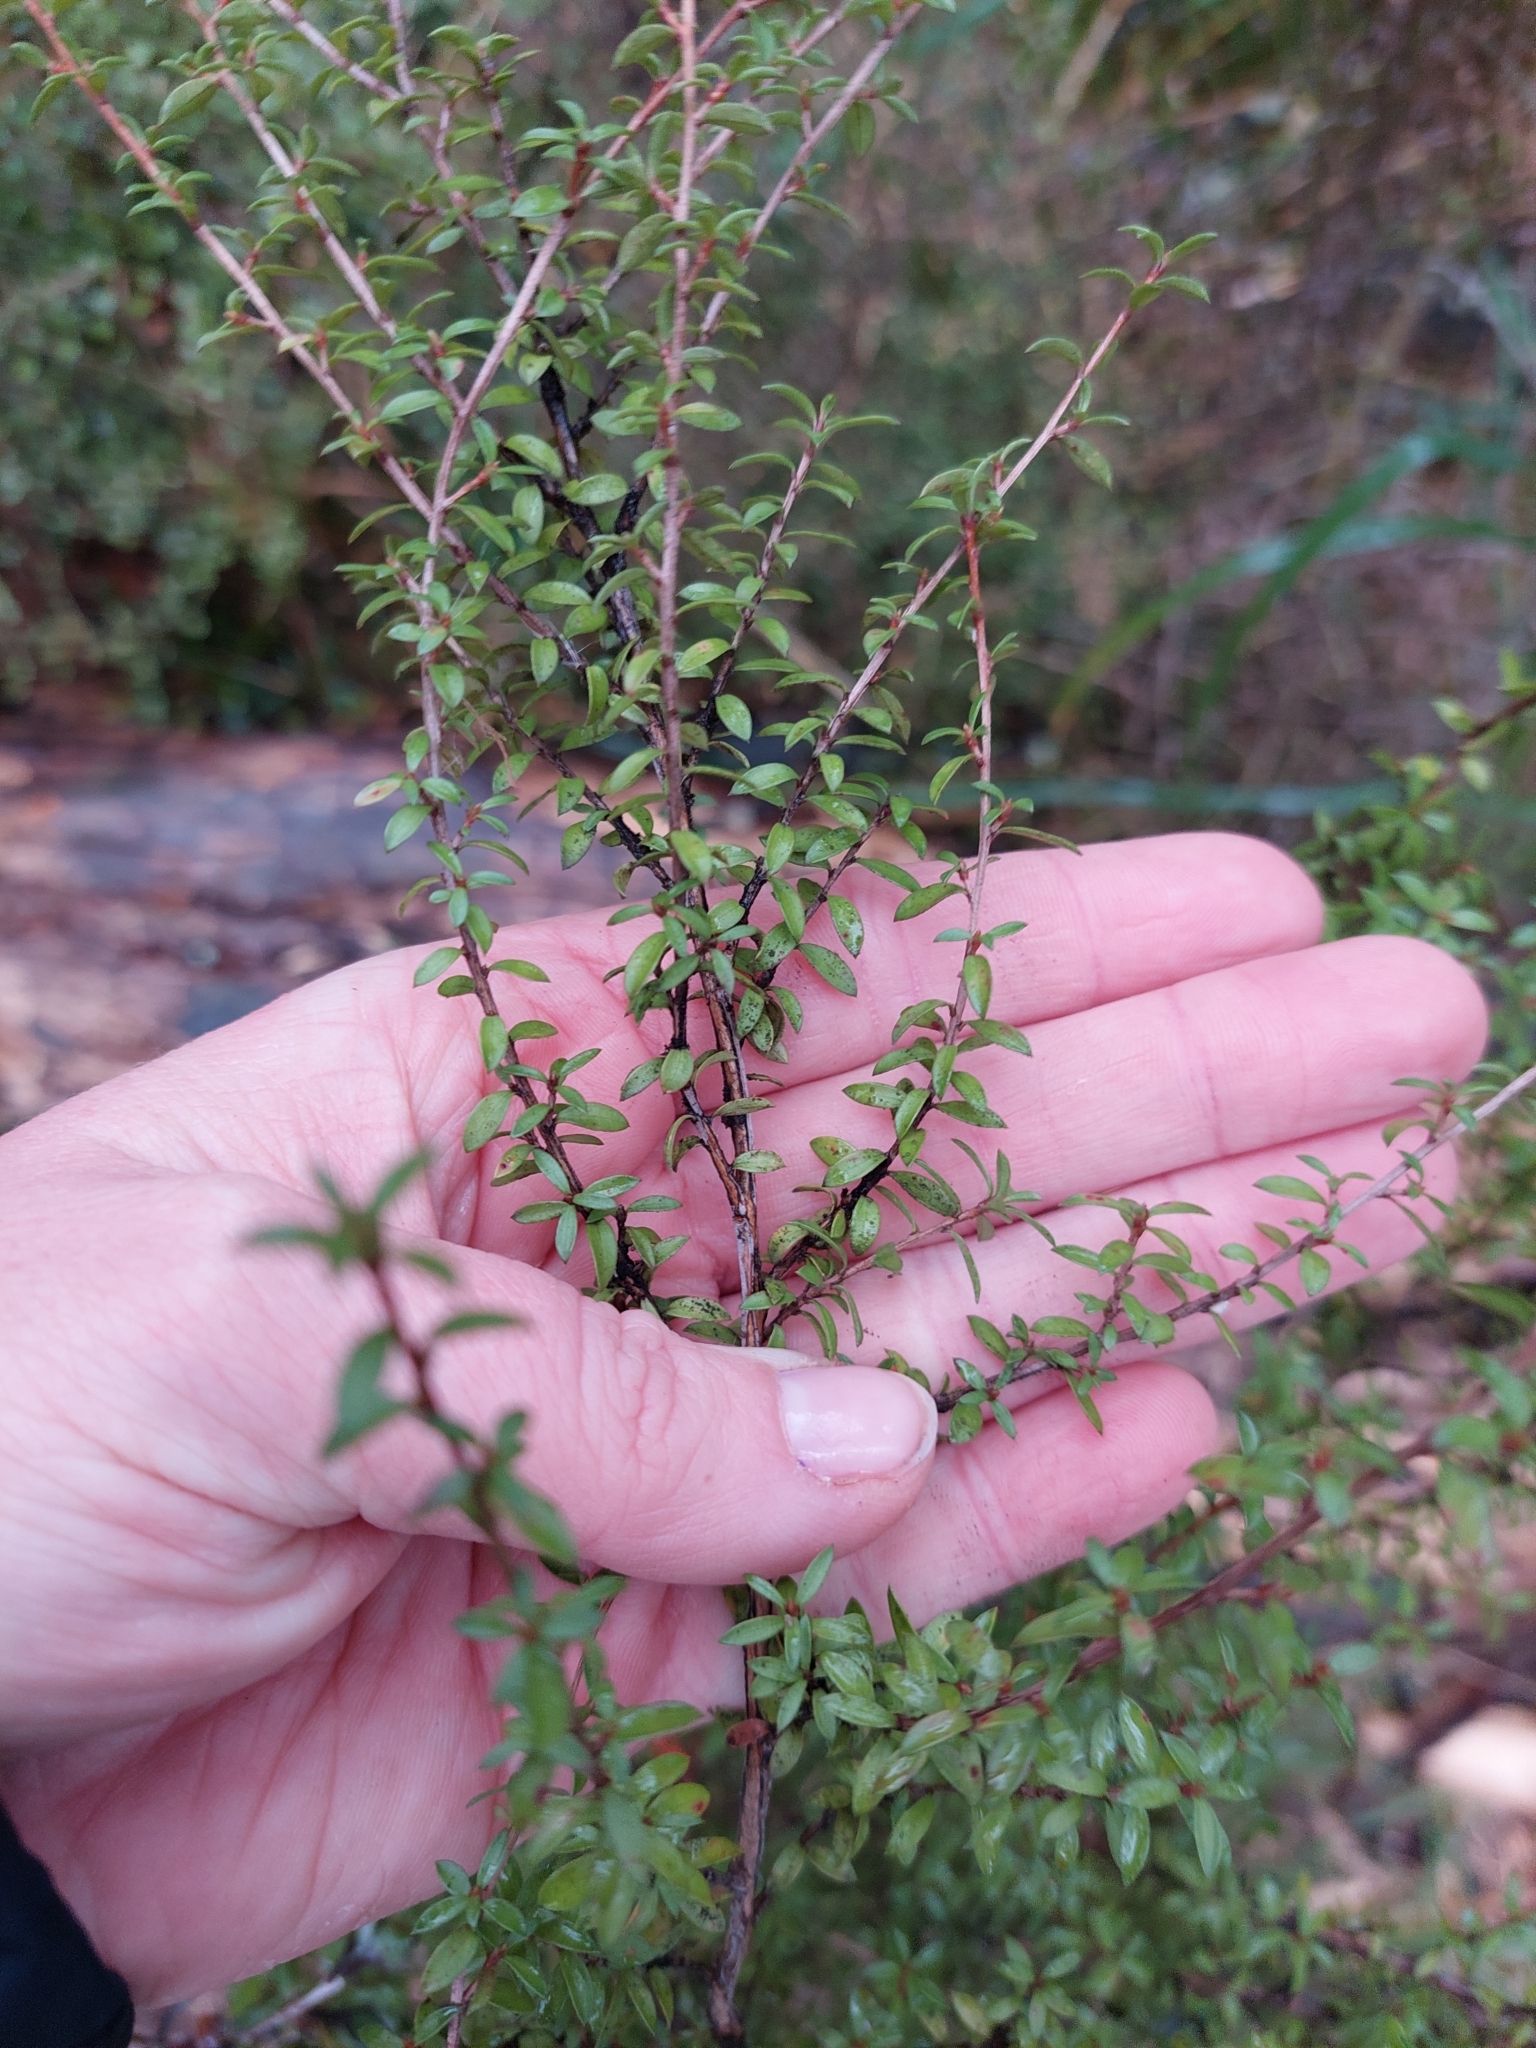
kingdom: Plantae
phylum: Tracheophyta
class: Magnoliopsida
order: Myrtales
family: Myrtaceae
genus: Leptospermum
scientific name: Leptospermum scoparium
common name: Broom tea-tree
